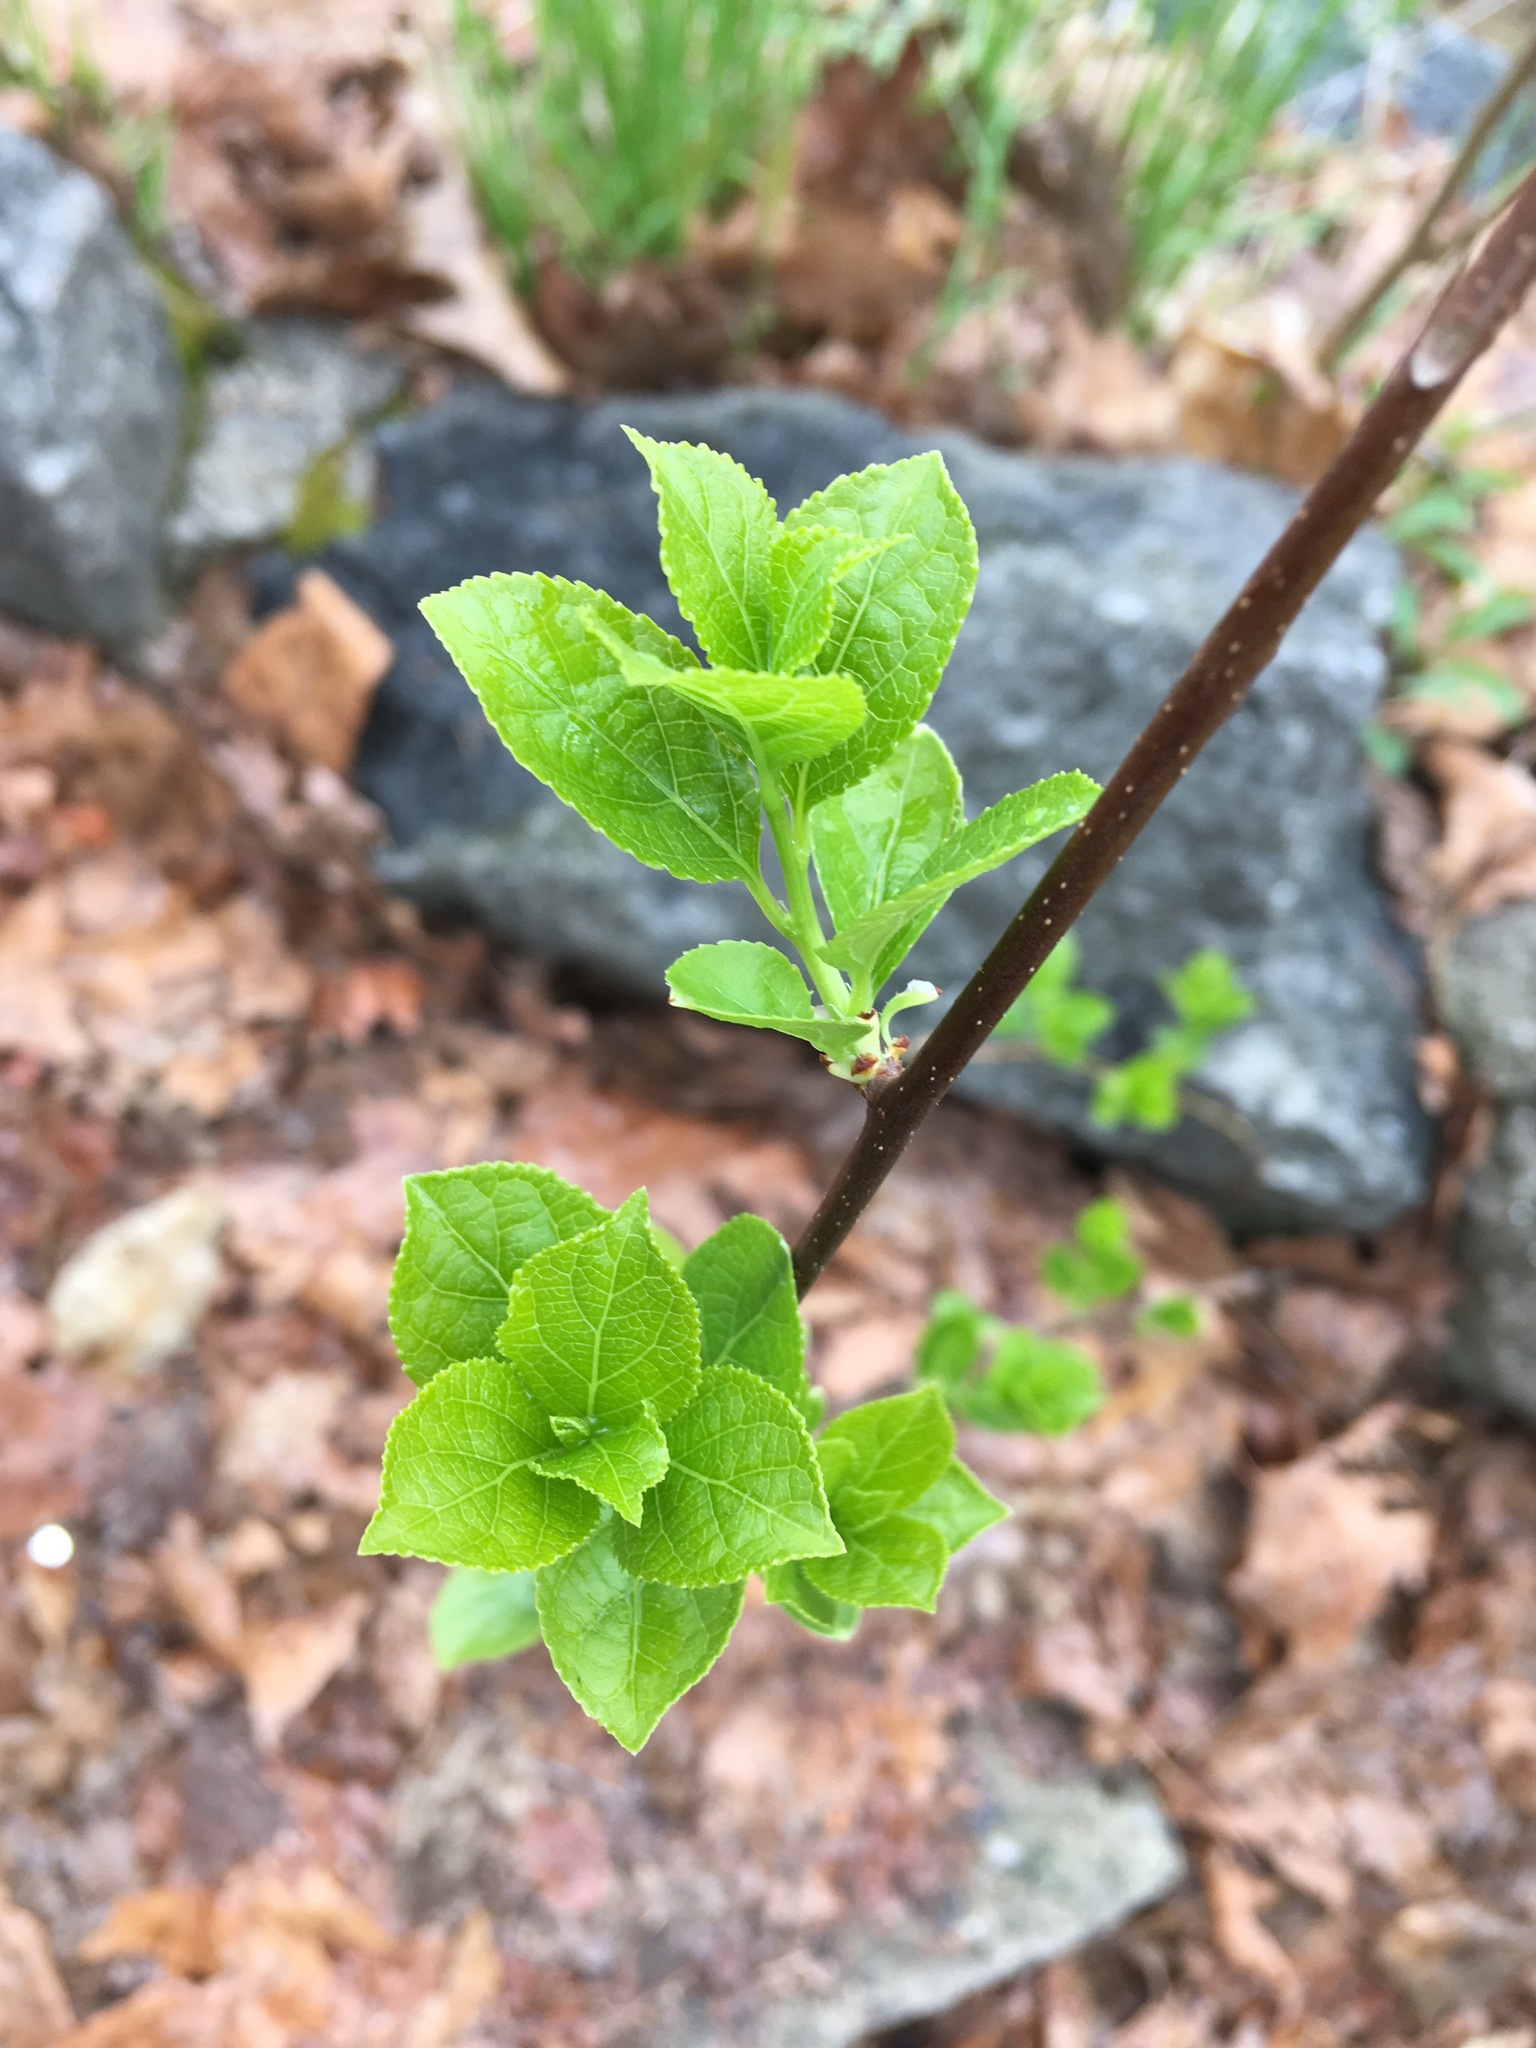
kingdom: Plantae
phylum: Tracheophyta
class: Magnoliopsida
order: Celastrales
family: Celastraceae
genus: Celastrus
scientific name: Celastrus orbiculatus
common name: Oriental bittersweet
